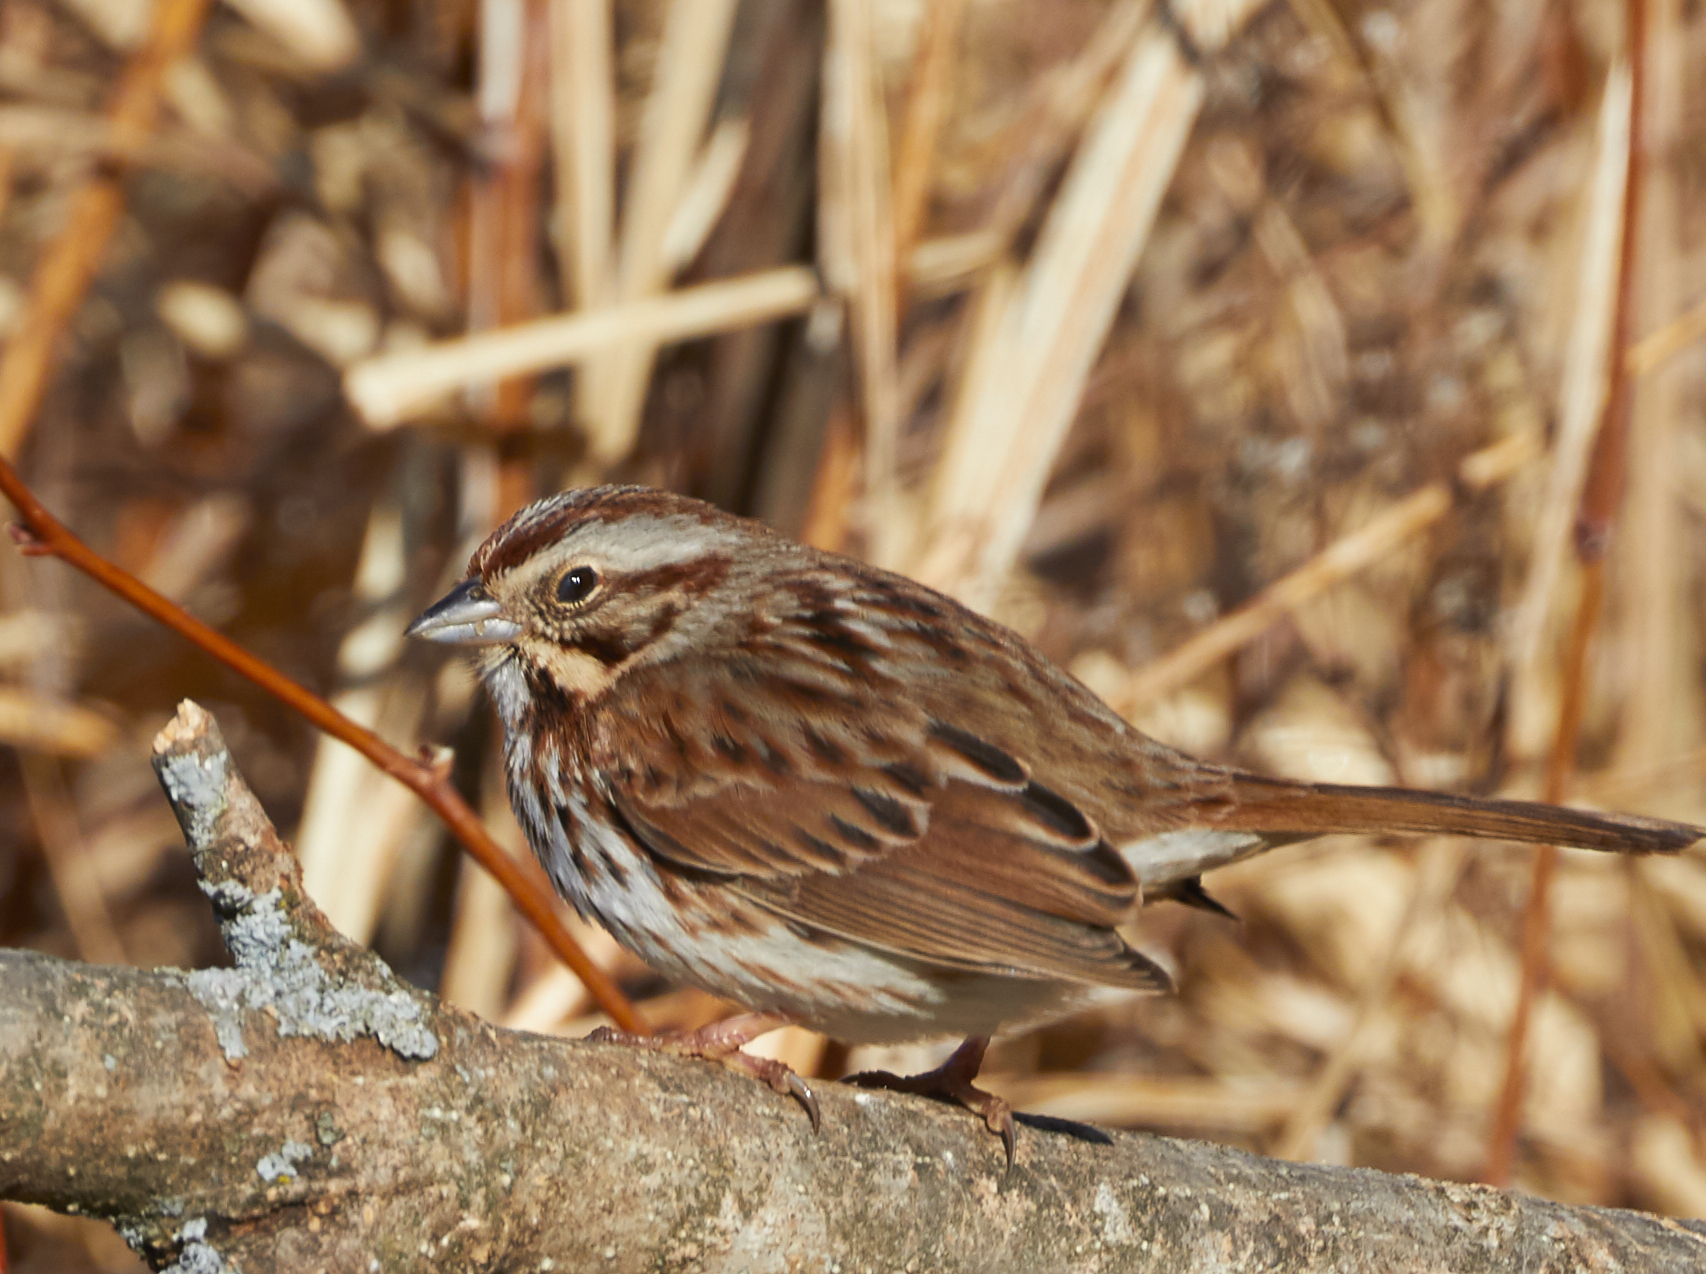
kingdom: Animalia
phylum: Chordata
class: Aves
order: Passeriformes
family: Passerellidae
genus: Melospiza
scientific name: Melospiza melodia
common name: Song sparrow
